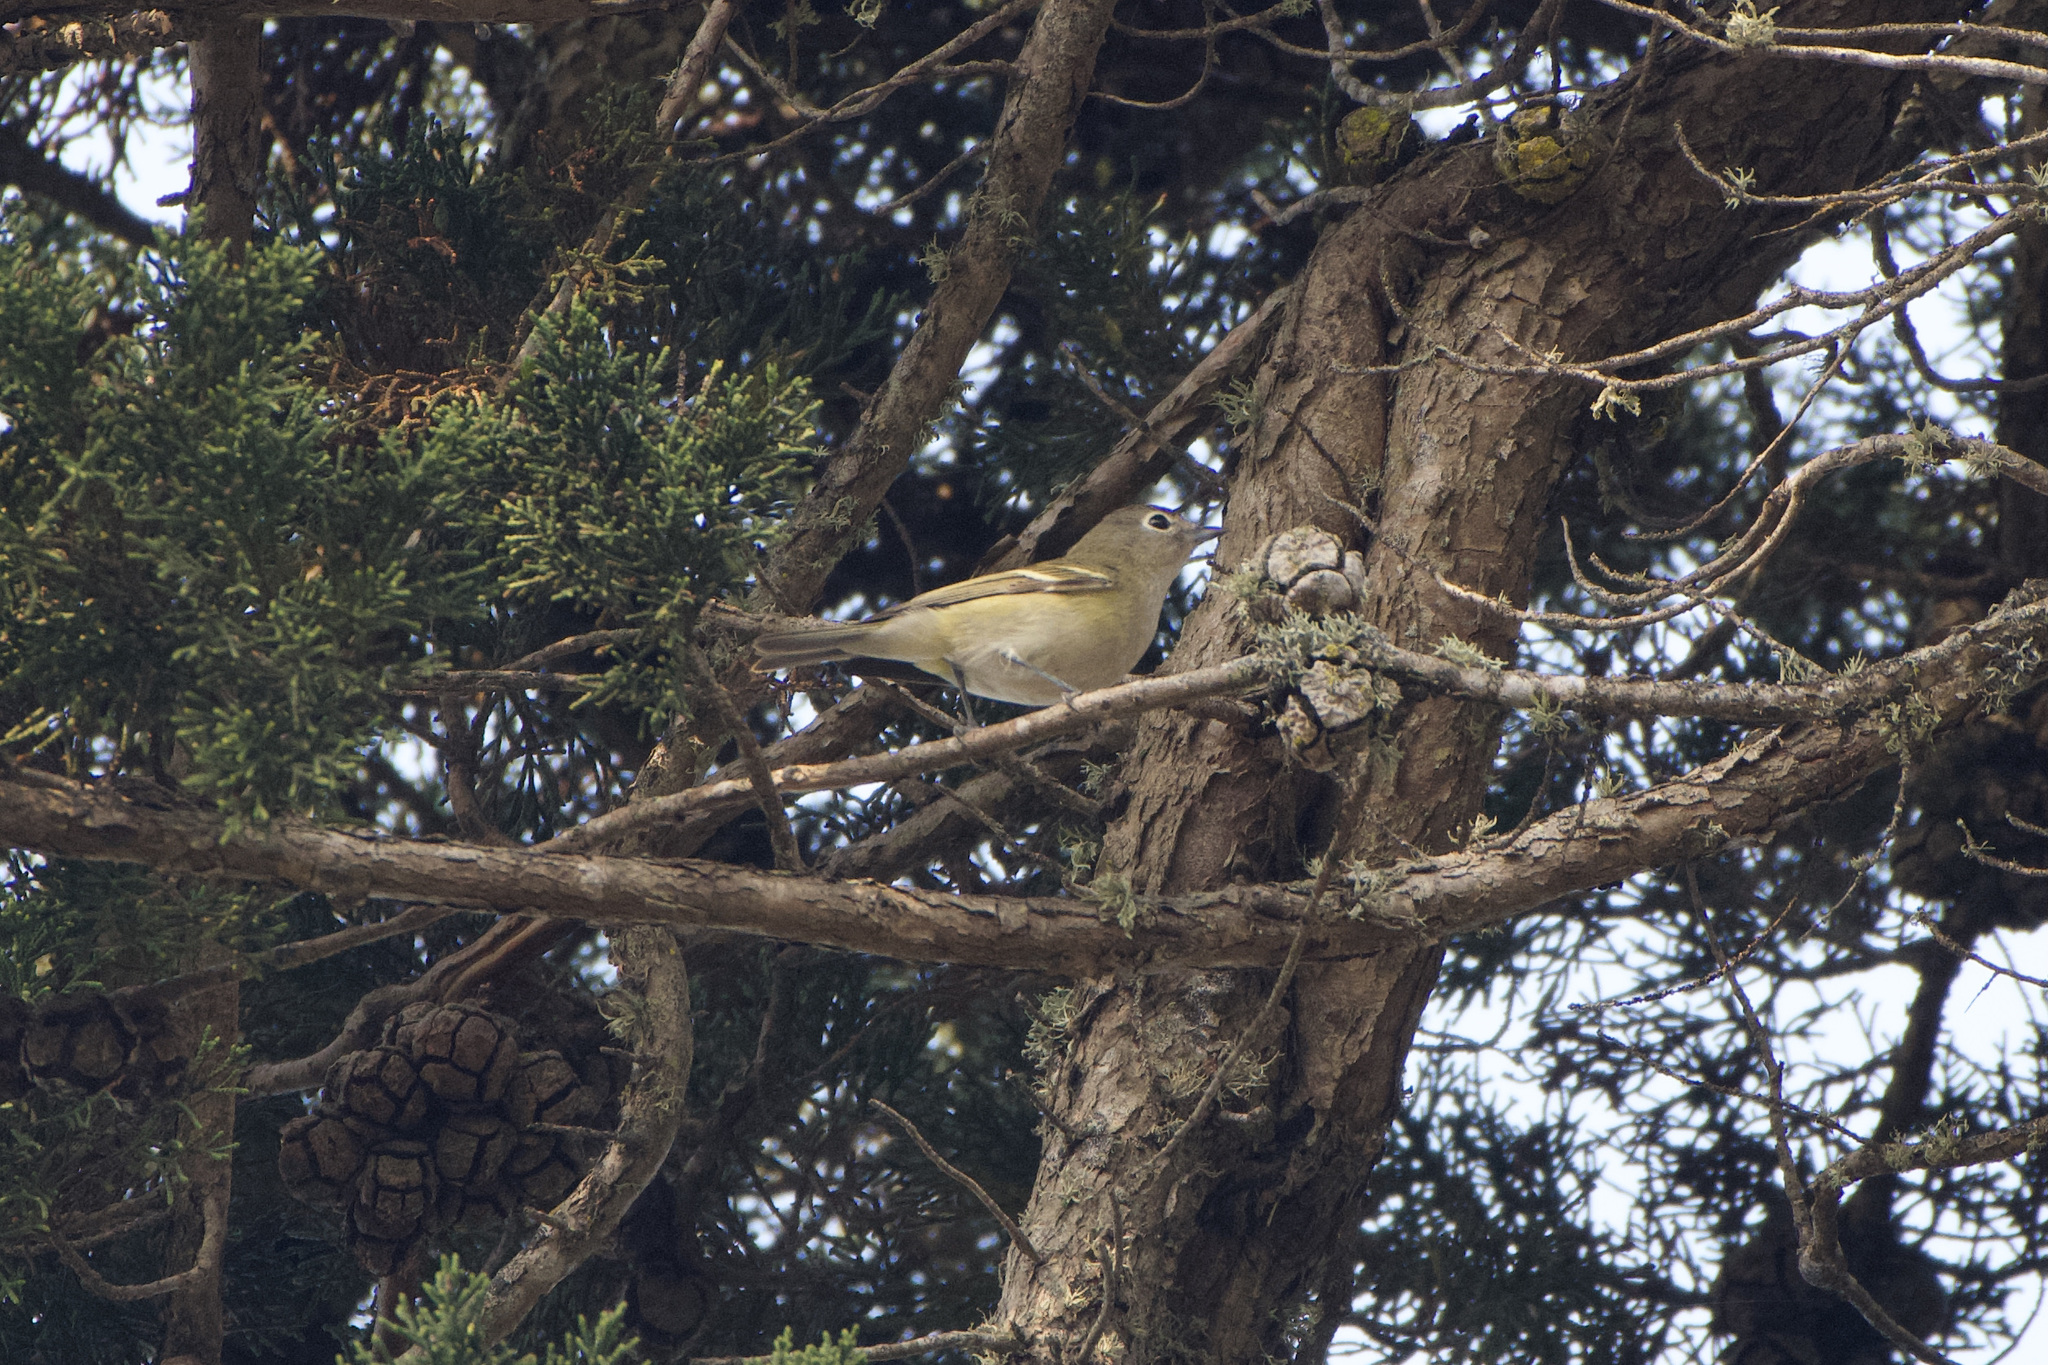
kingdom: Animalia
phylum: Chordata
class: Aves
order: Passeriformes
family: Vireonidae
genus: Vireo
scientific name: Vireo cassinii
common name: Cassin's vireo
